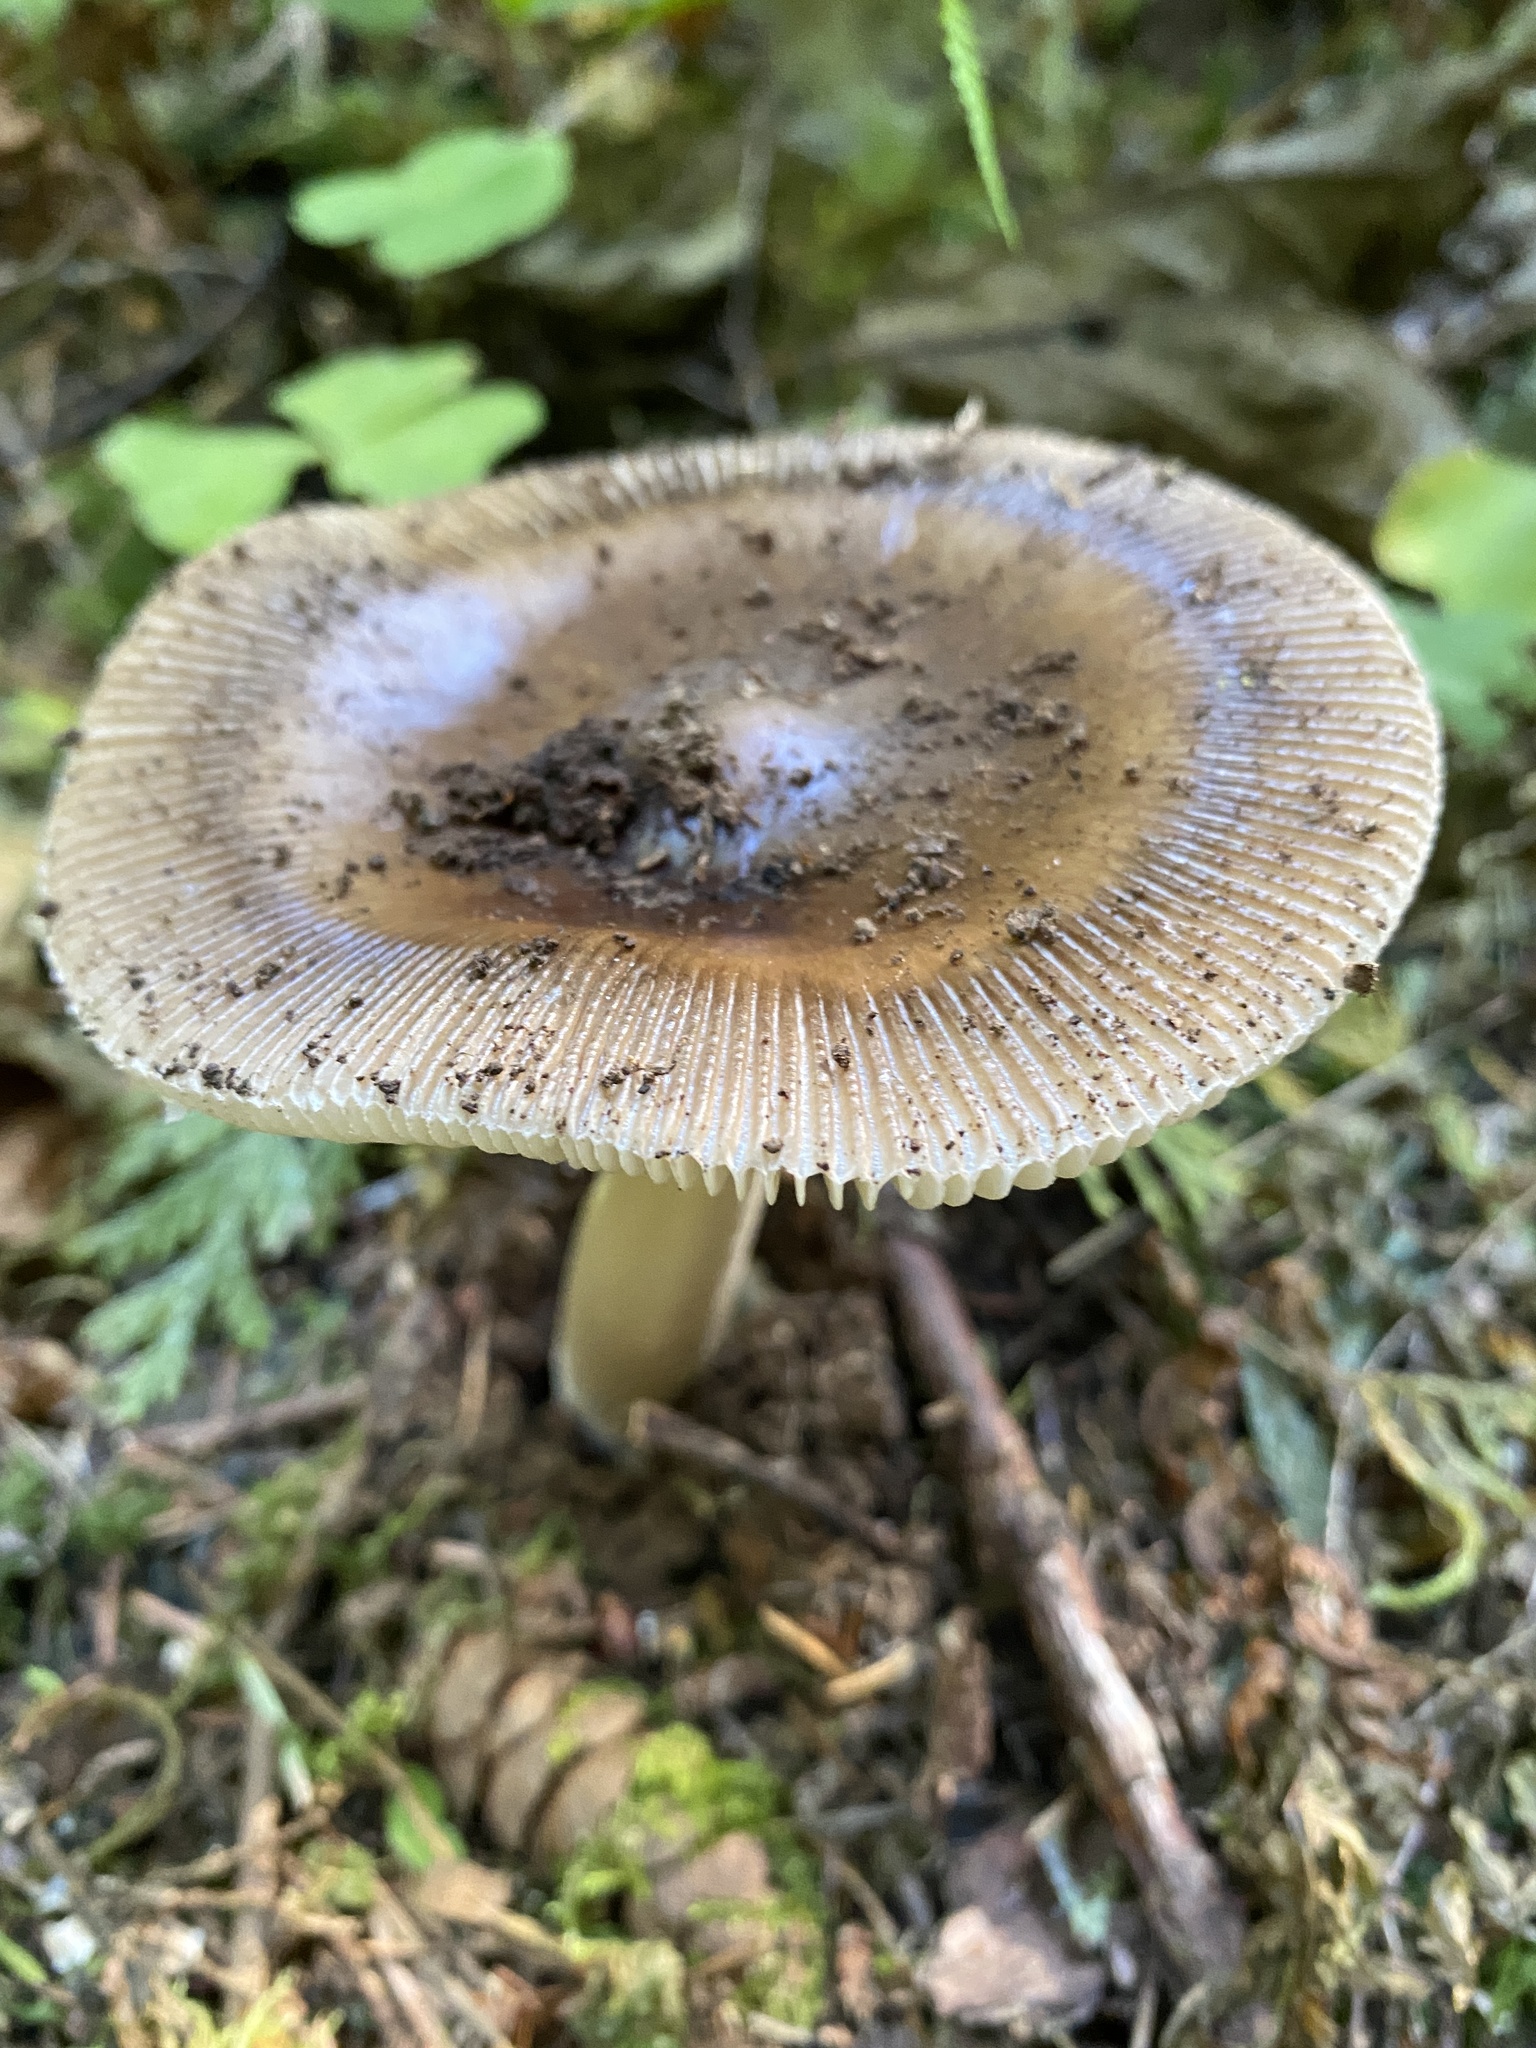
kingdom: Fungi
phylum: Basidiomycota
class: Agaricomycetes
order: Agaricales
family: Amanitaceae
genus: Amanita
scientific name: Amanita pachycolea
